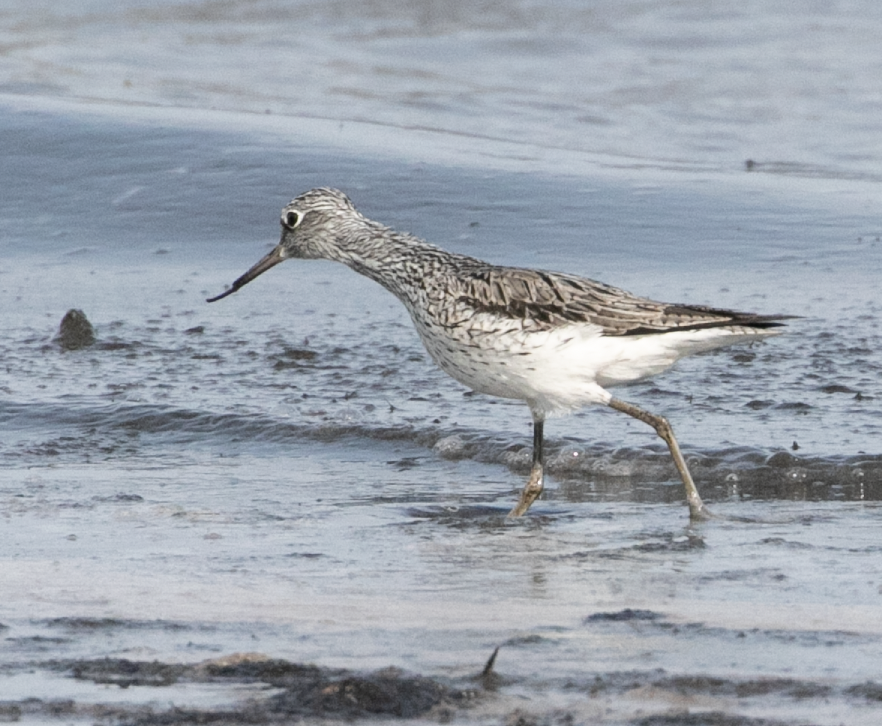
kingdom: Animalia
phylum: Chordata
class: Aves
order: Charadriiformes
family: Scolopacidae
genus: Tringa
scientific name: Tringa nebularia
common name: Common greenshank
